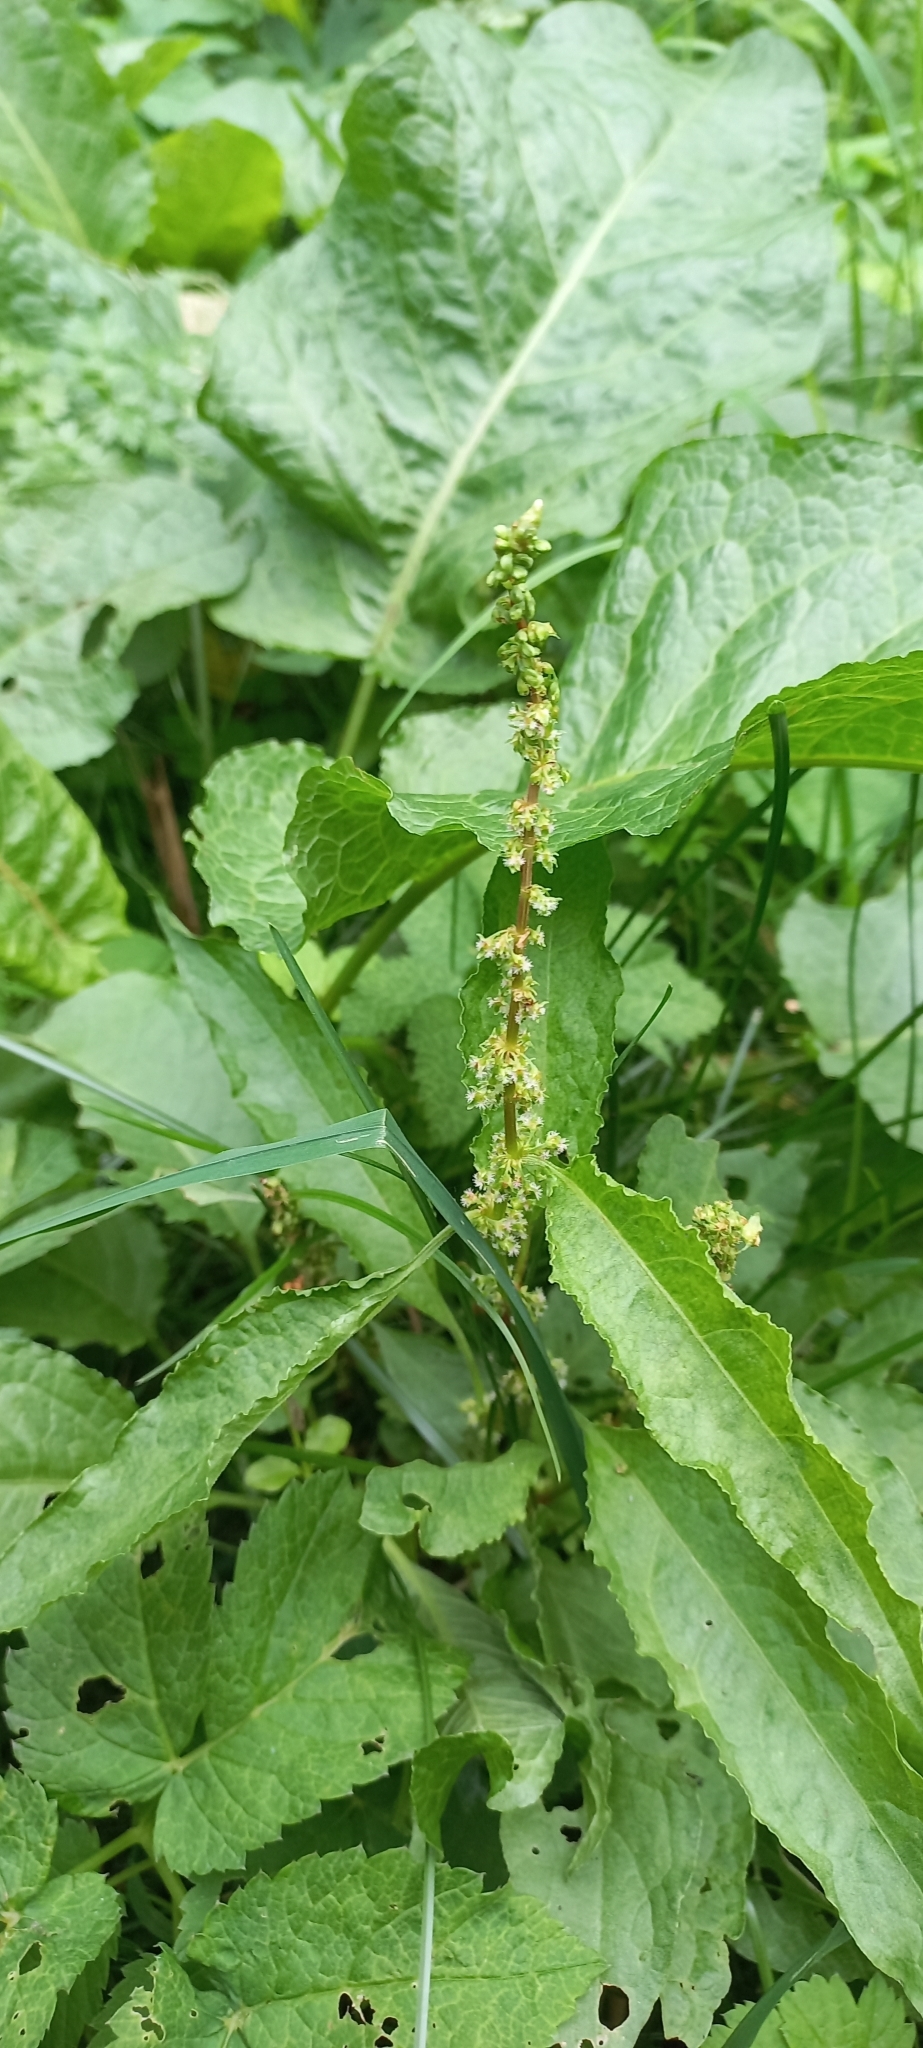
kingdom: Plantae
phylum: Tracheophyta
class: Magnoliopsida
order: Caryophyllales
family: Polygonaceae
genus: Rumex
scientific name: Rumex obtusifolius
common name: Bitter dock
